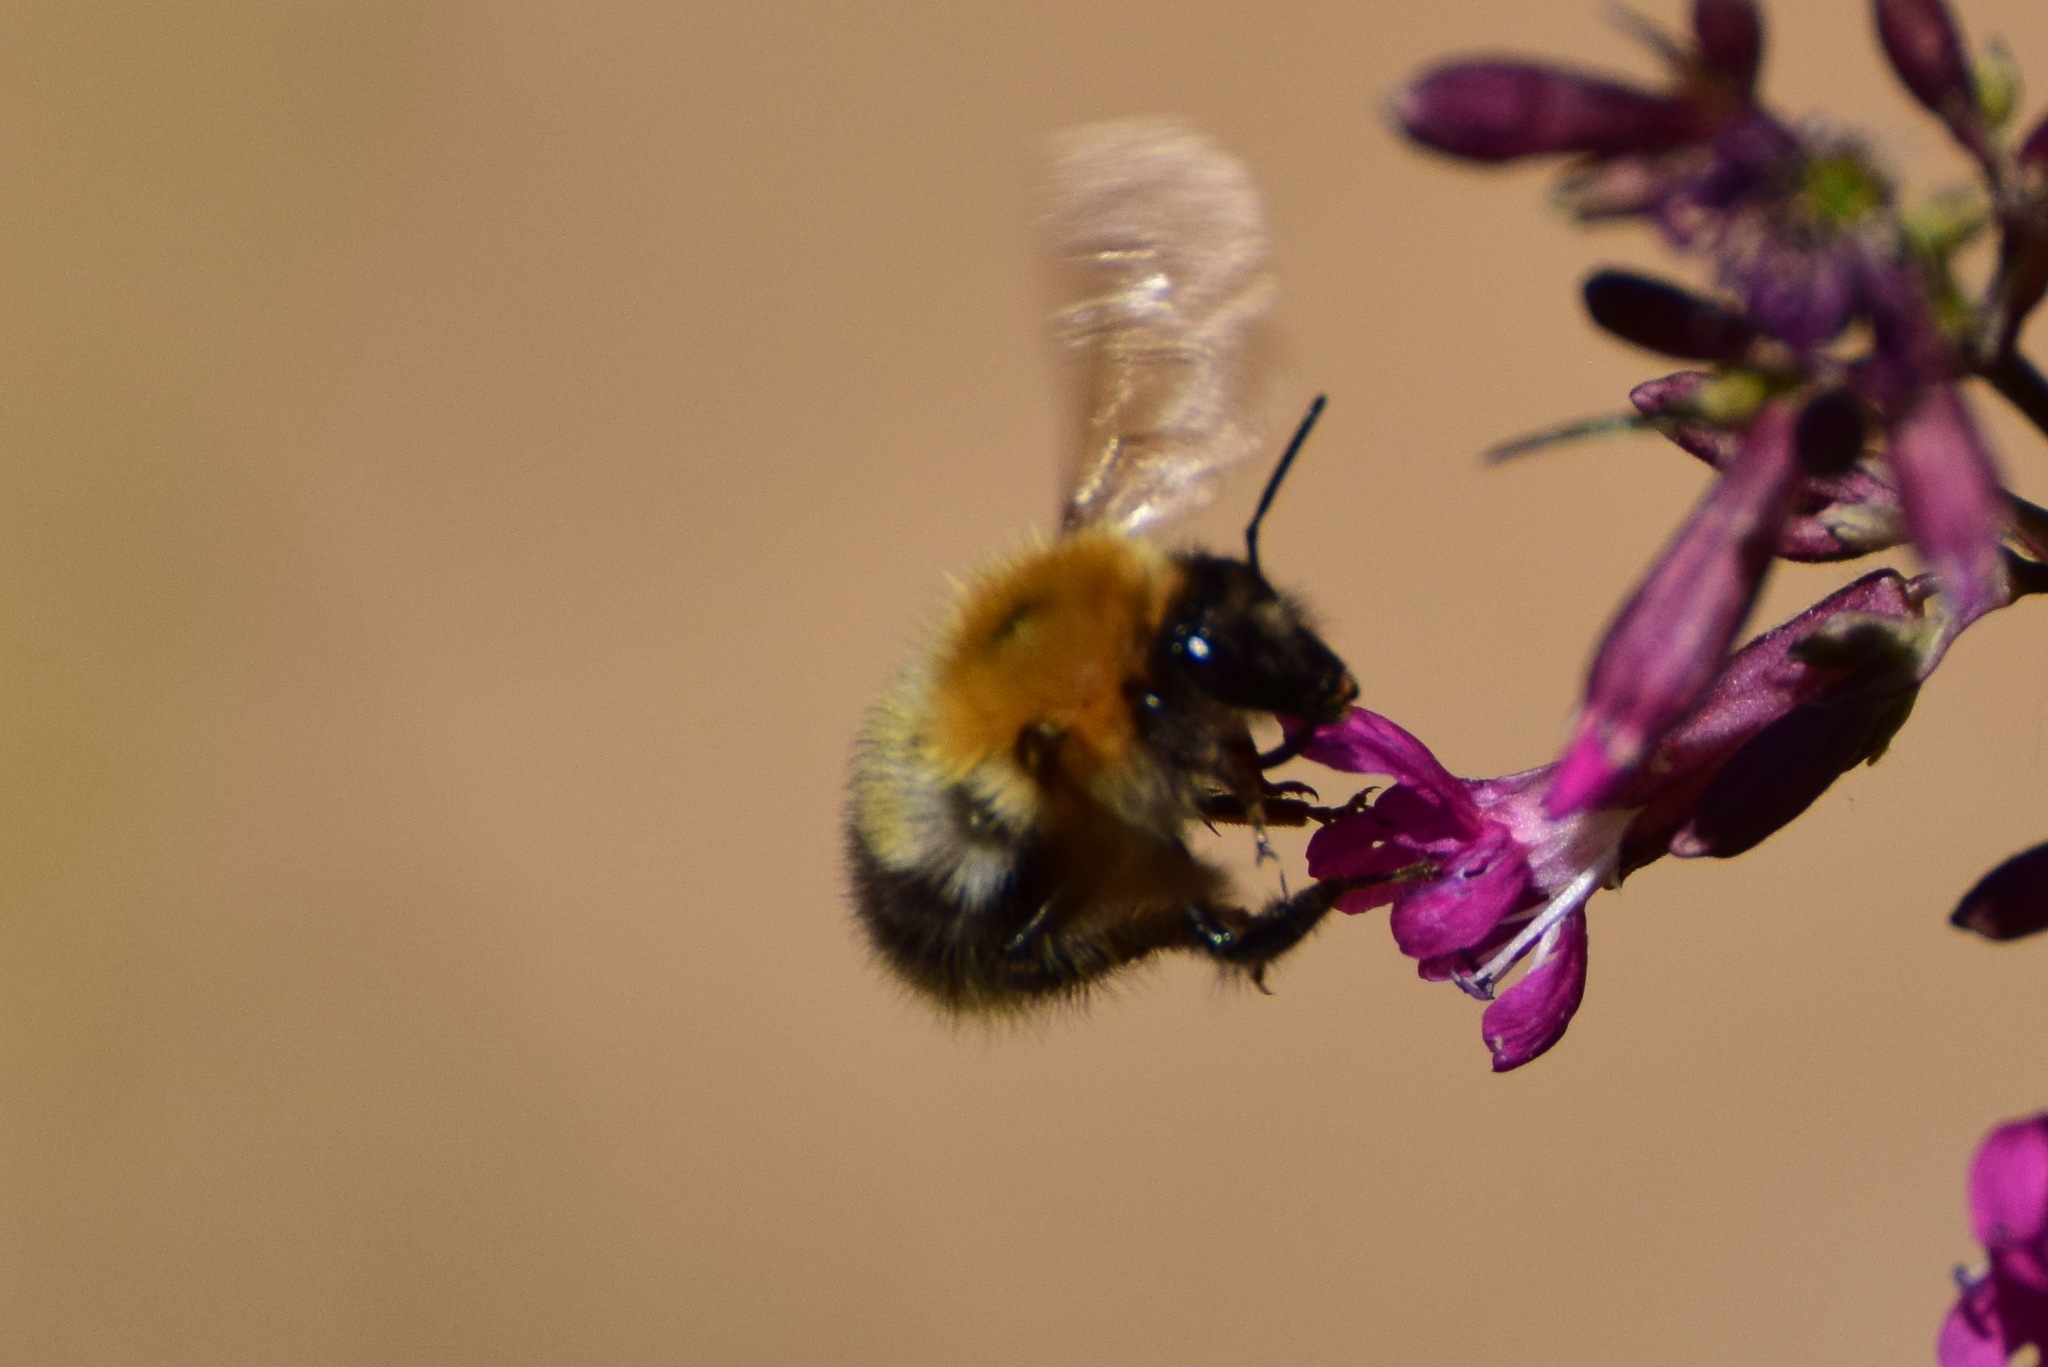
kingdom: Animalia
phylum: Arthropoda
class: Insecta
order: Hymenoptera
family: Apidae
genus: Bombus
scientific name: Bombus pascuorum
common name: Common carder bee
